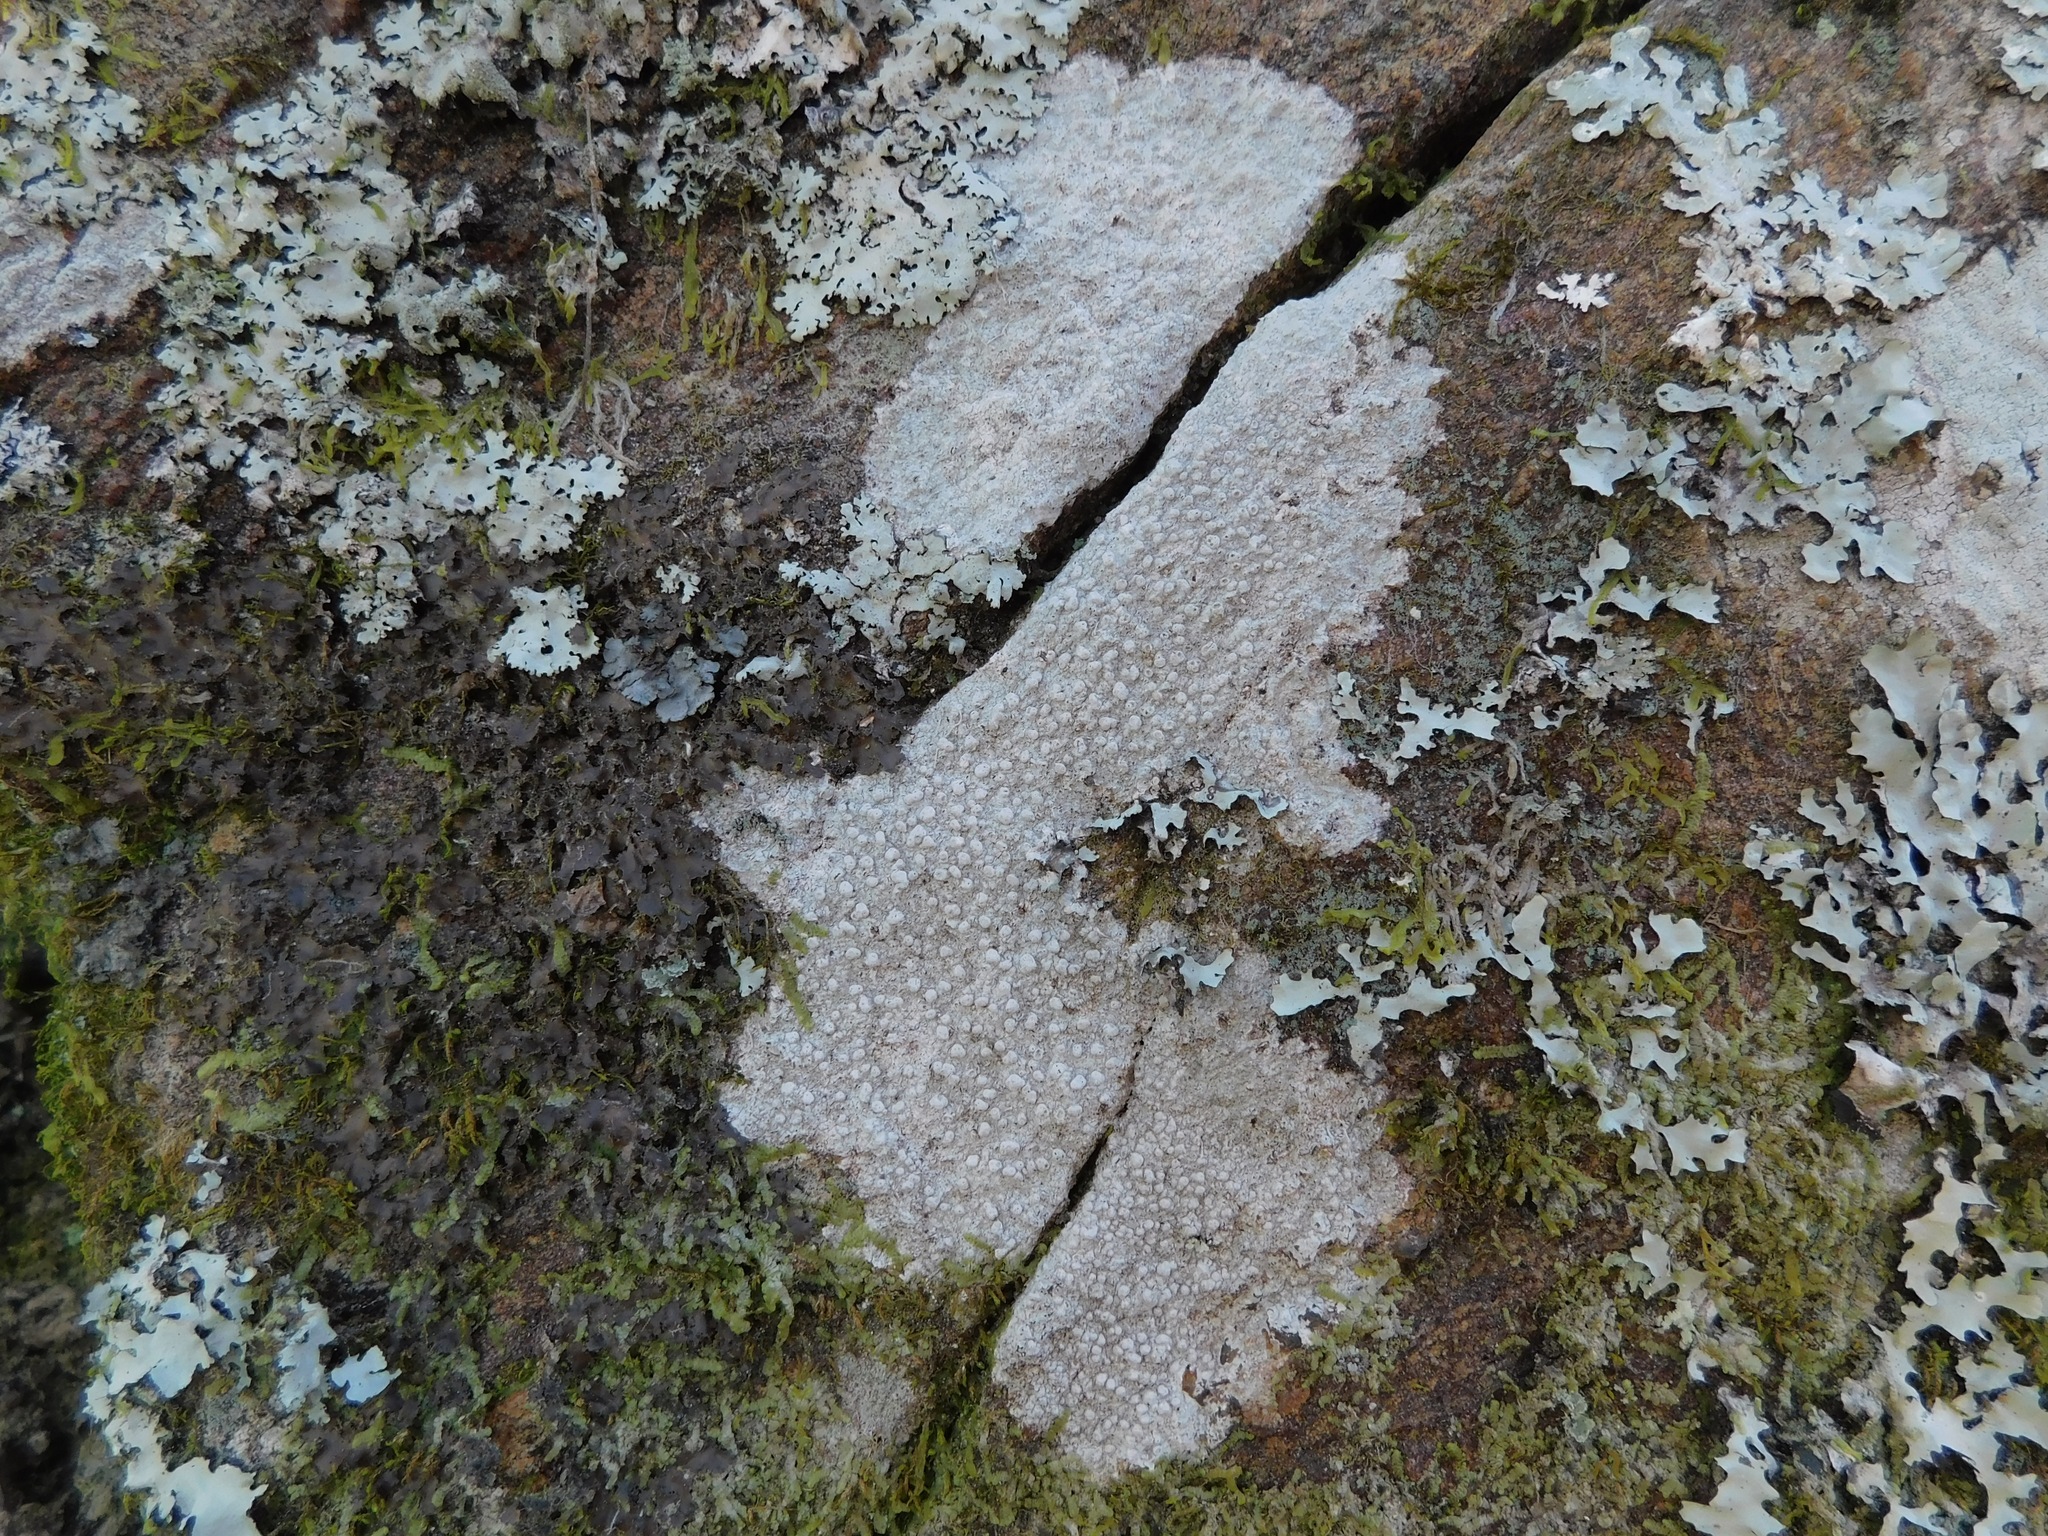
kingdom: Fungi
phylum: Ascomycota
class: Lecanoromycetes
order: Pertusariales
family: Pertusariaceae
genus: Pertusaria
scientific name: Pertusaria plittiana
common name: Rock wart lichen
